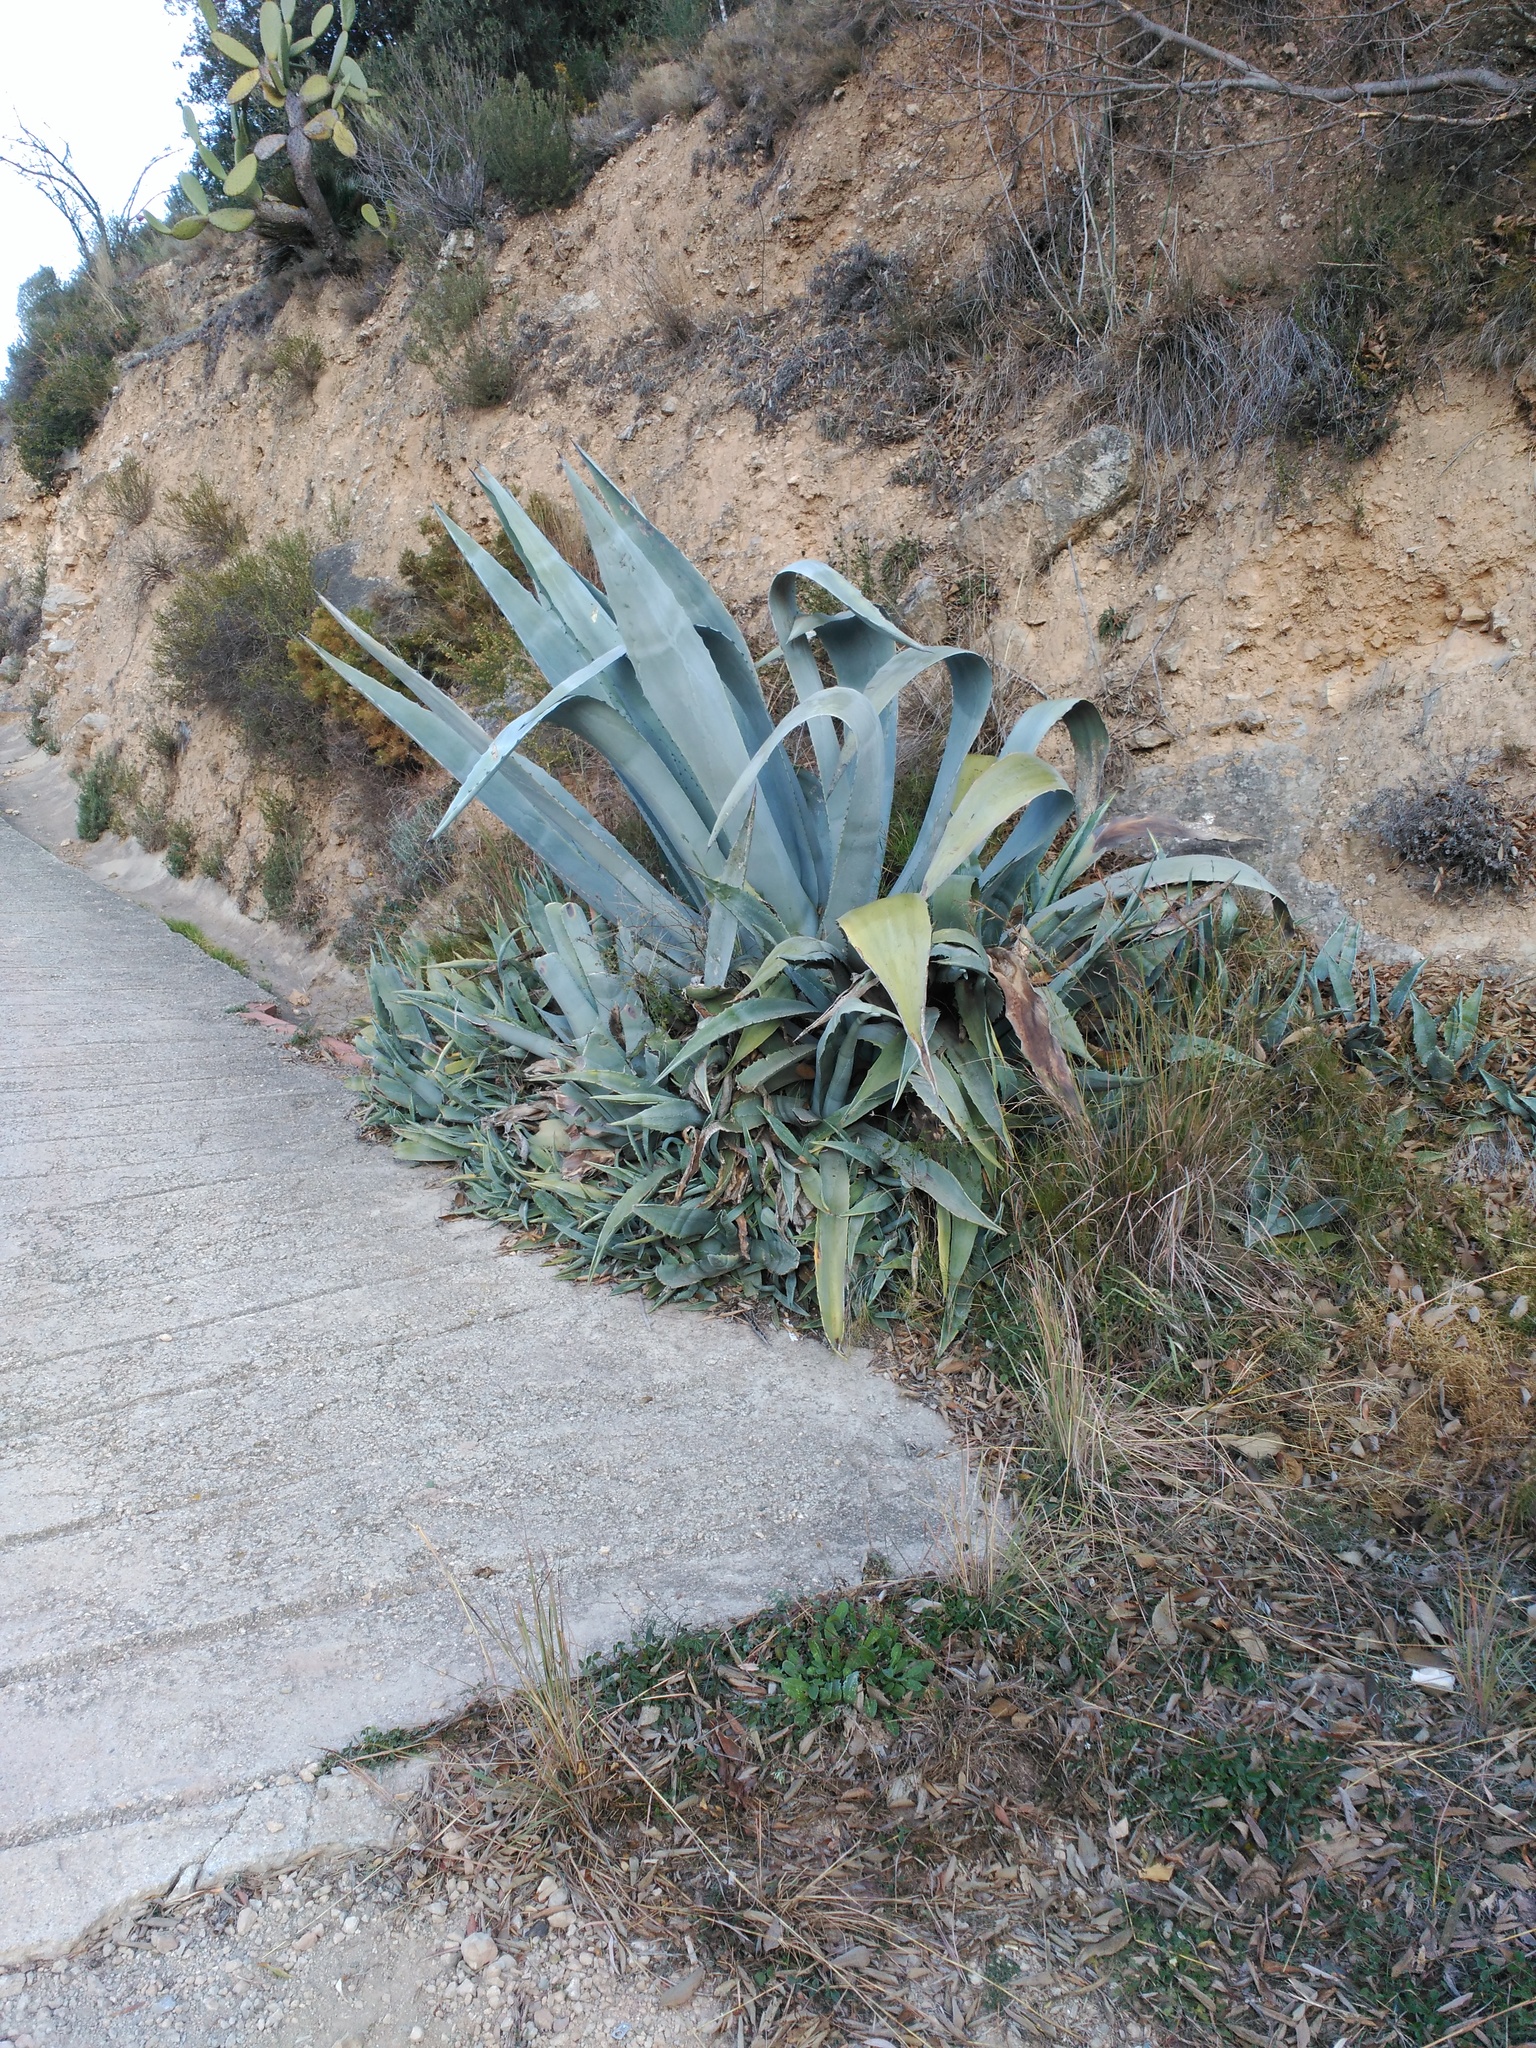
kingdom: Plantae
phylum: Tracheophyta
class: Liliopsida
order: Asparagales
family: Asparagaceae
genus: Agave
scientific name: Agave americana
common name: Centuryplant
